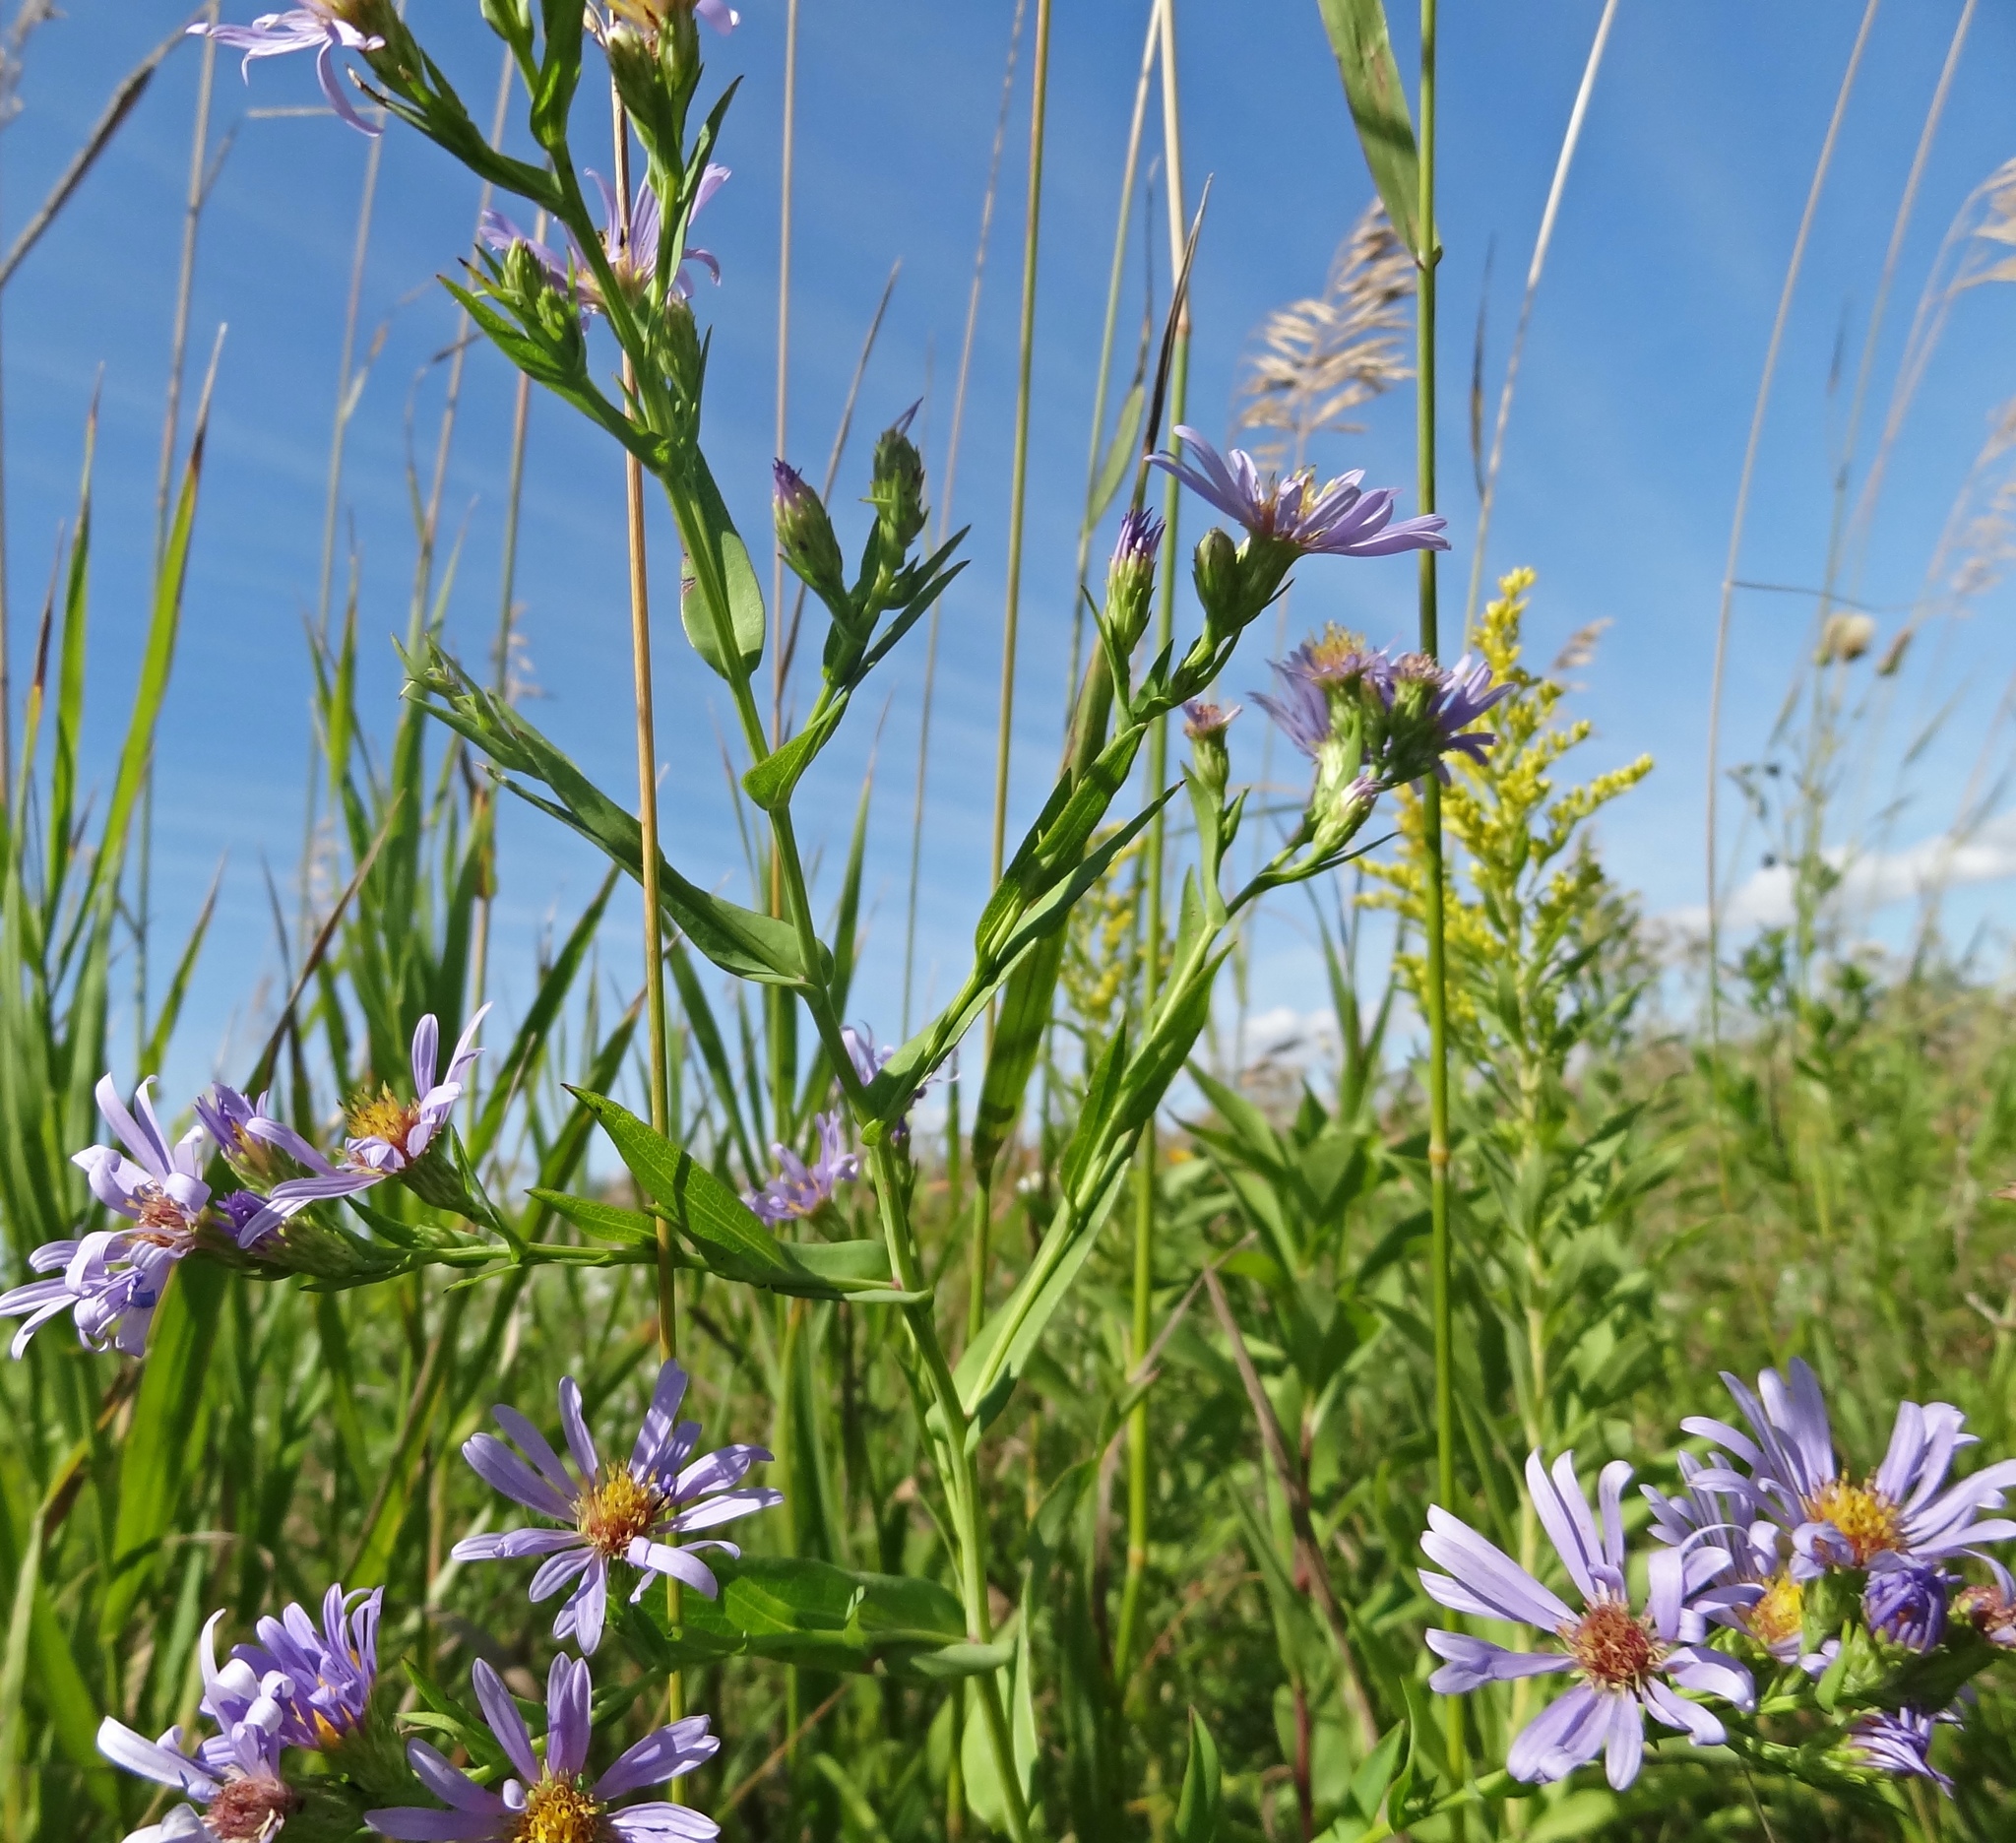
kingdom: Plantae
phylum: Tracheophyta
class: Magnoliopsida
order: Asterales
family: Asteraceae
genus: Symphyotrichum
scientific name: Symphyotrichum laeve
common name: Glaucous aster
